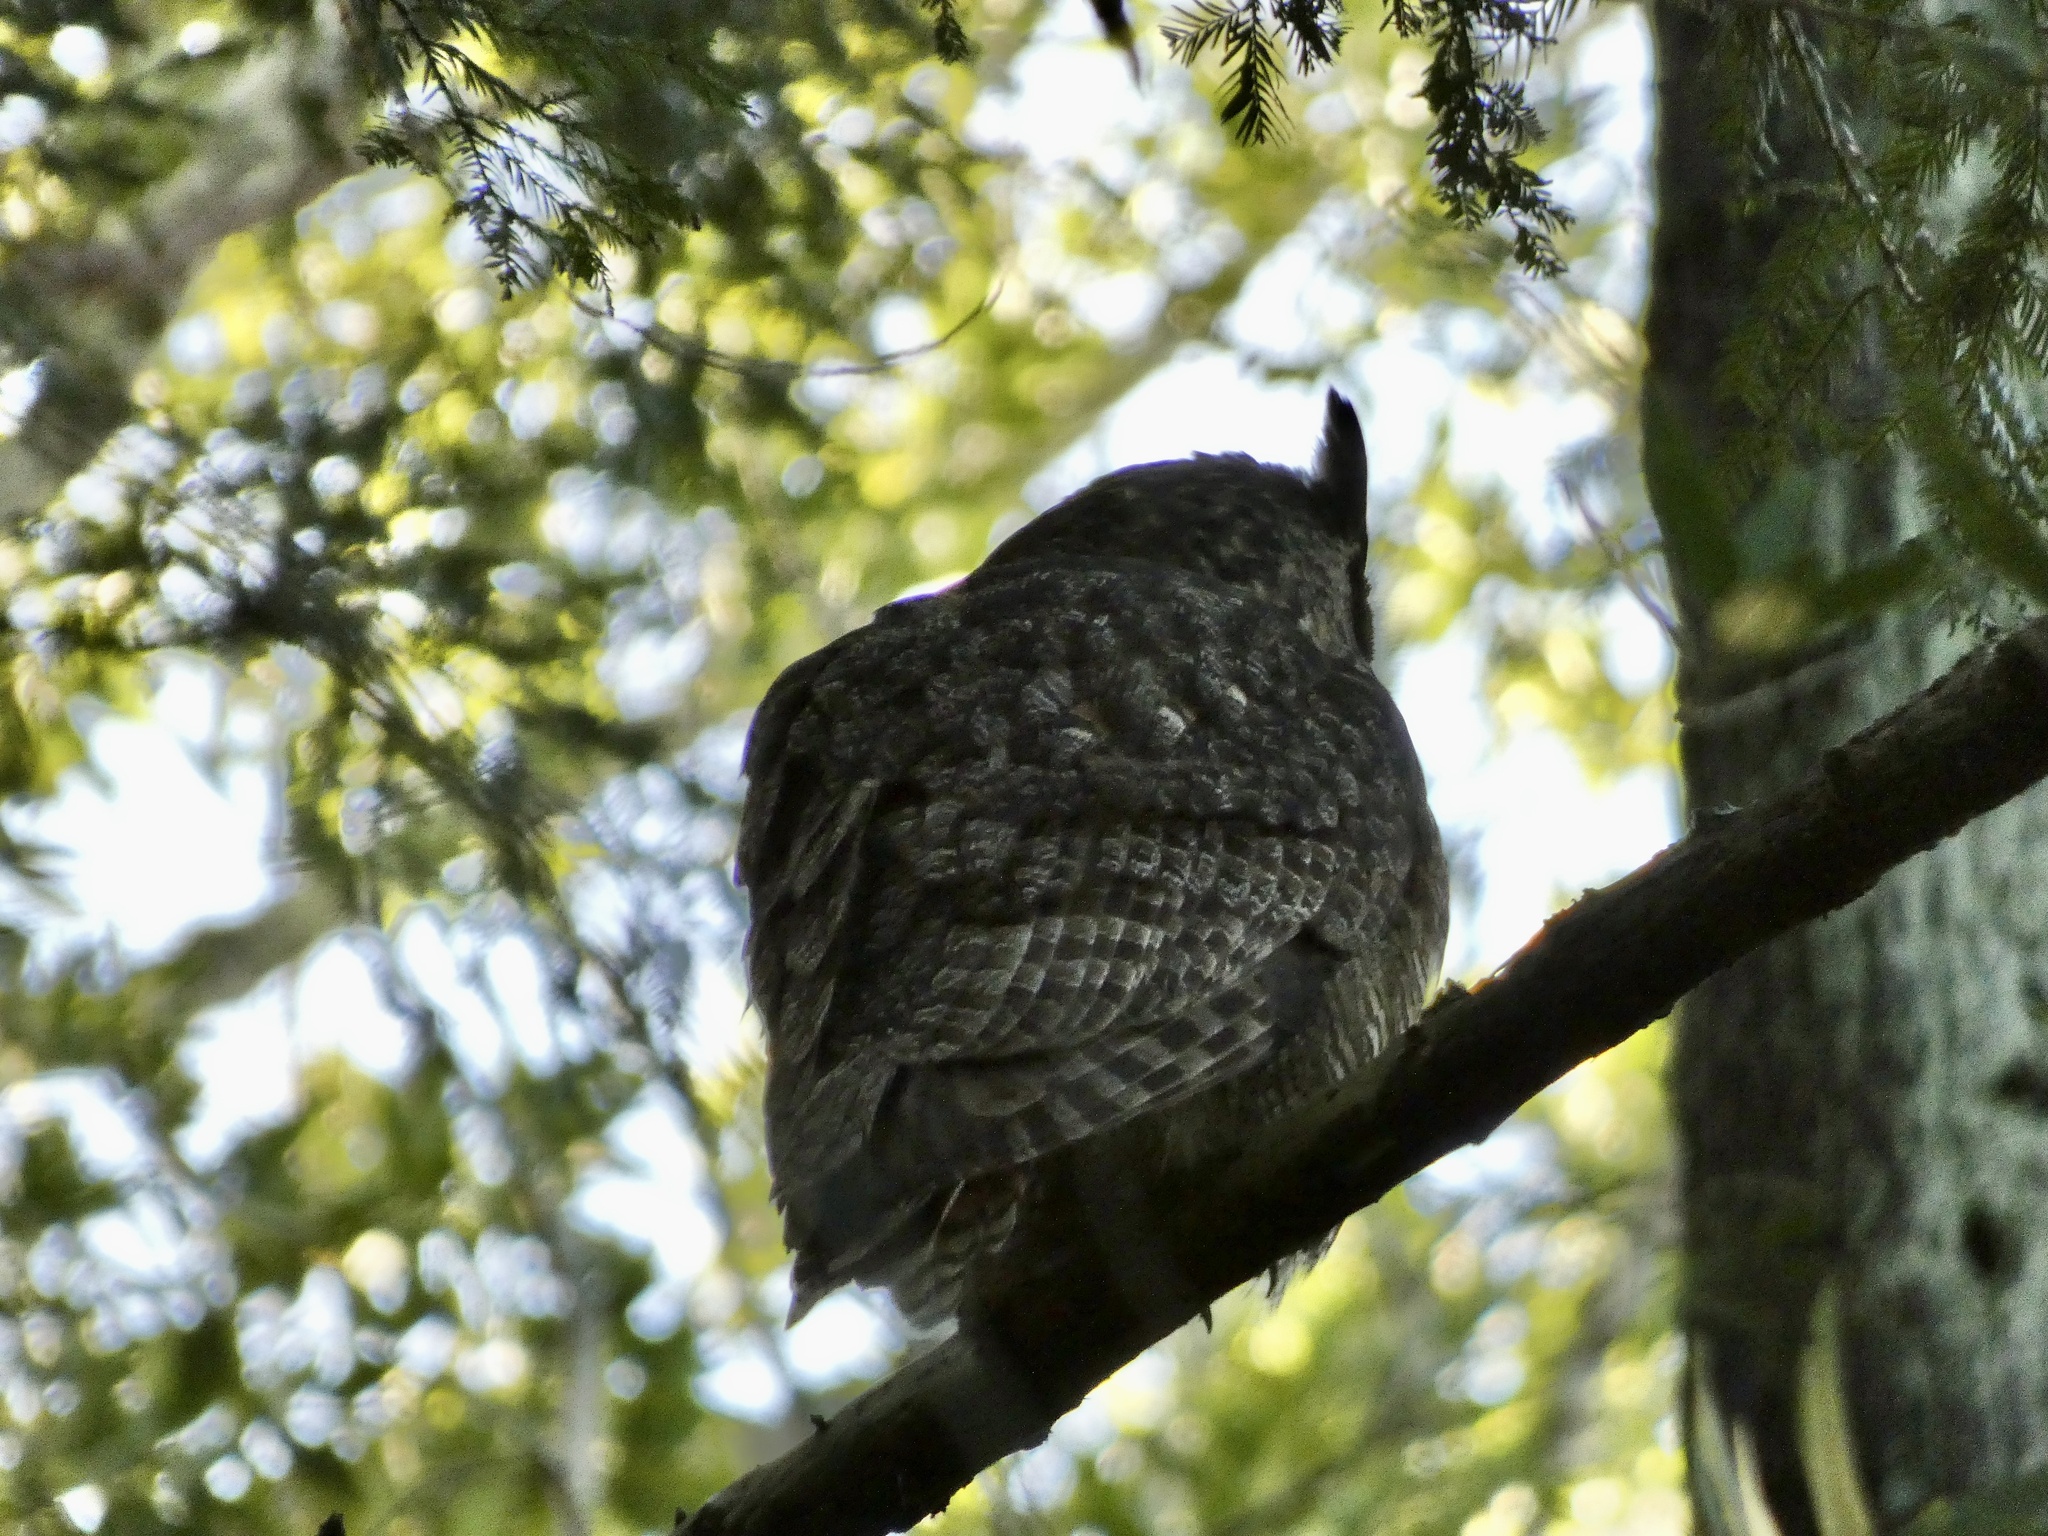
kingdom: Animalia
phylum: Chordata
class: Aves
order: Strigiformes
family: Strigidae
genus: Bubo
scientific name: Bubo virginianus
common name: Great horned owl
